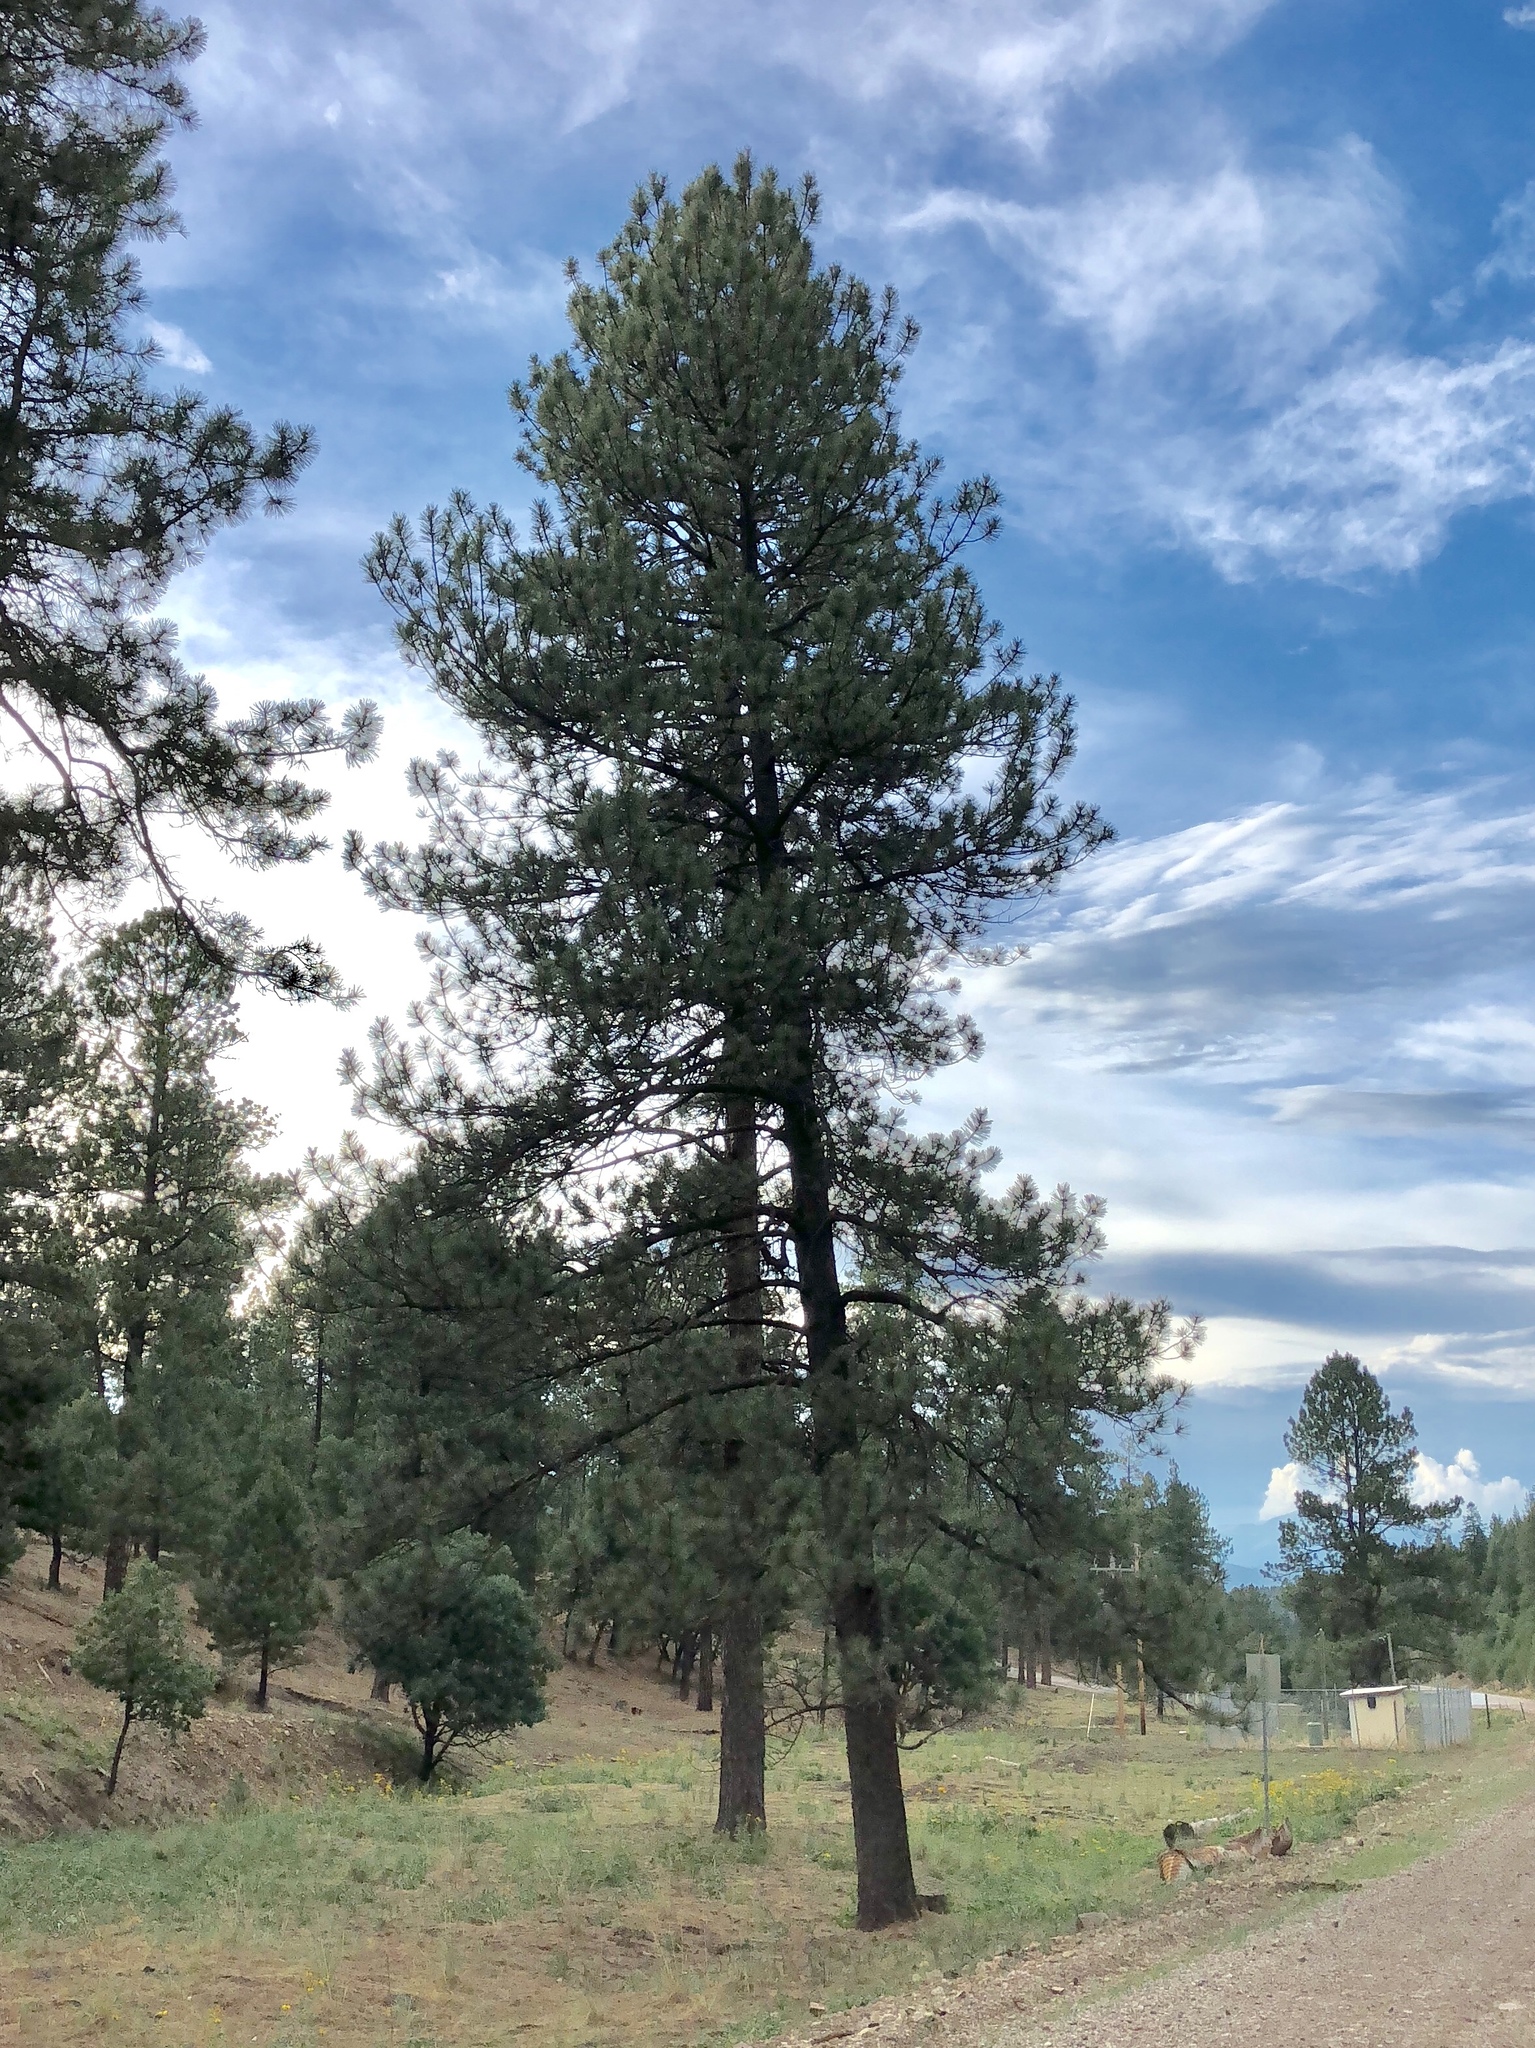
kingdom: Plantae
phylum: Tracheophyta
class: Pinopsida
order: Pinales
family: Pinaceae
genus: Pinus
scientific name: Pinus ponderosa
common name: Western yellow-pine
